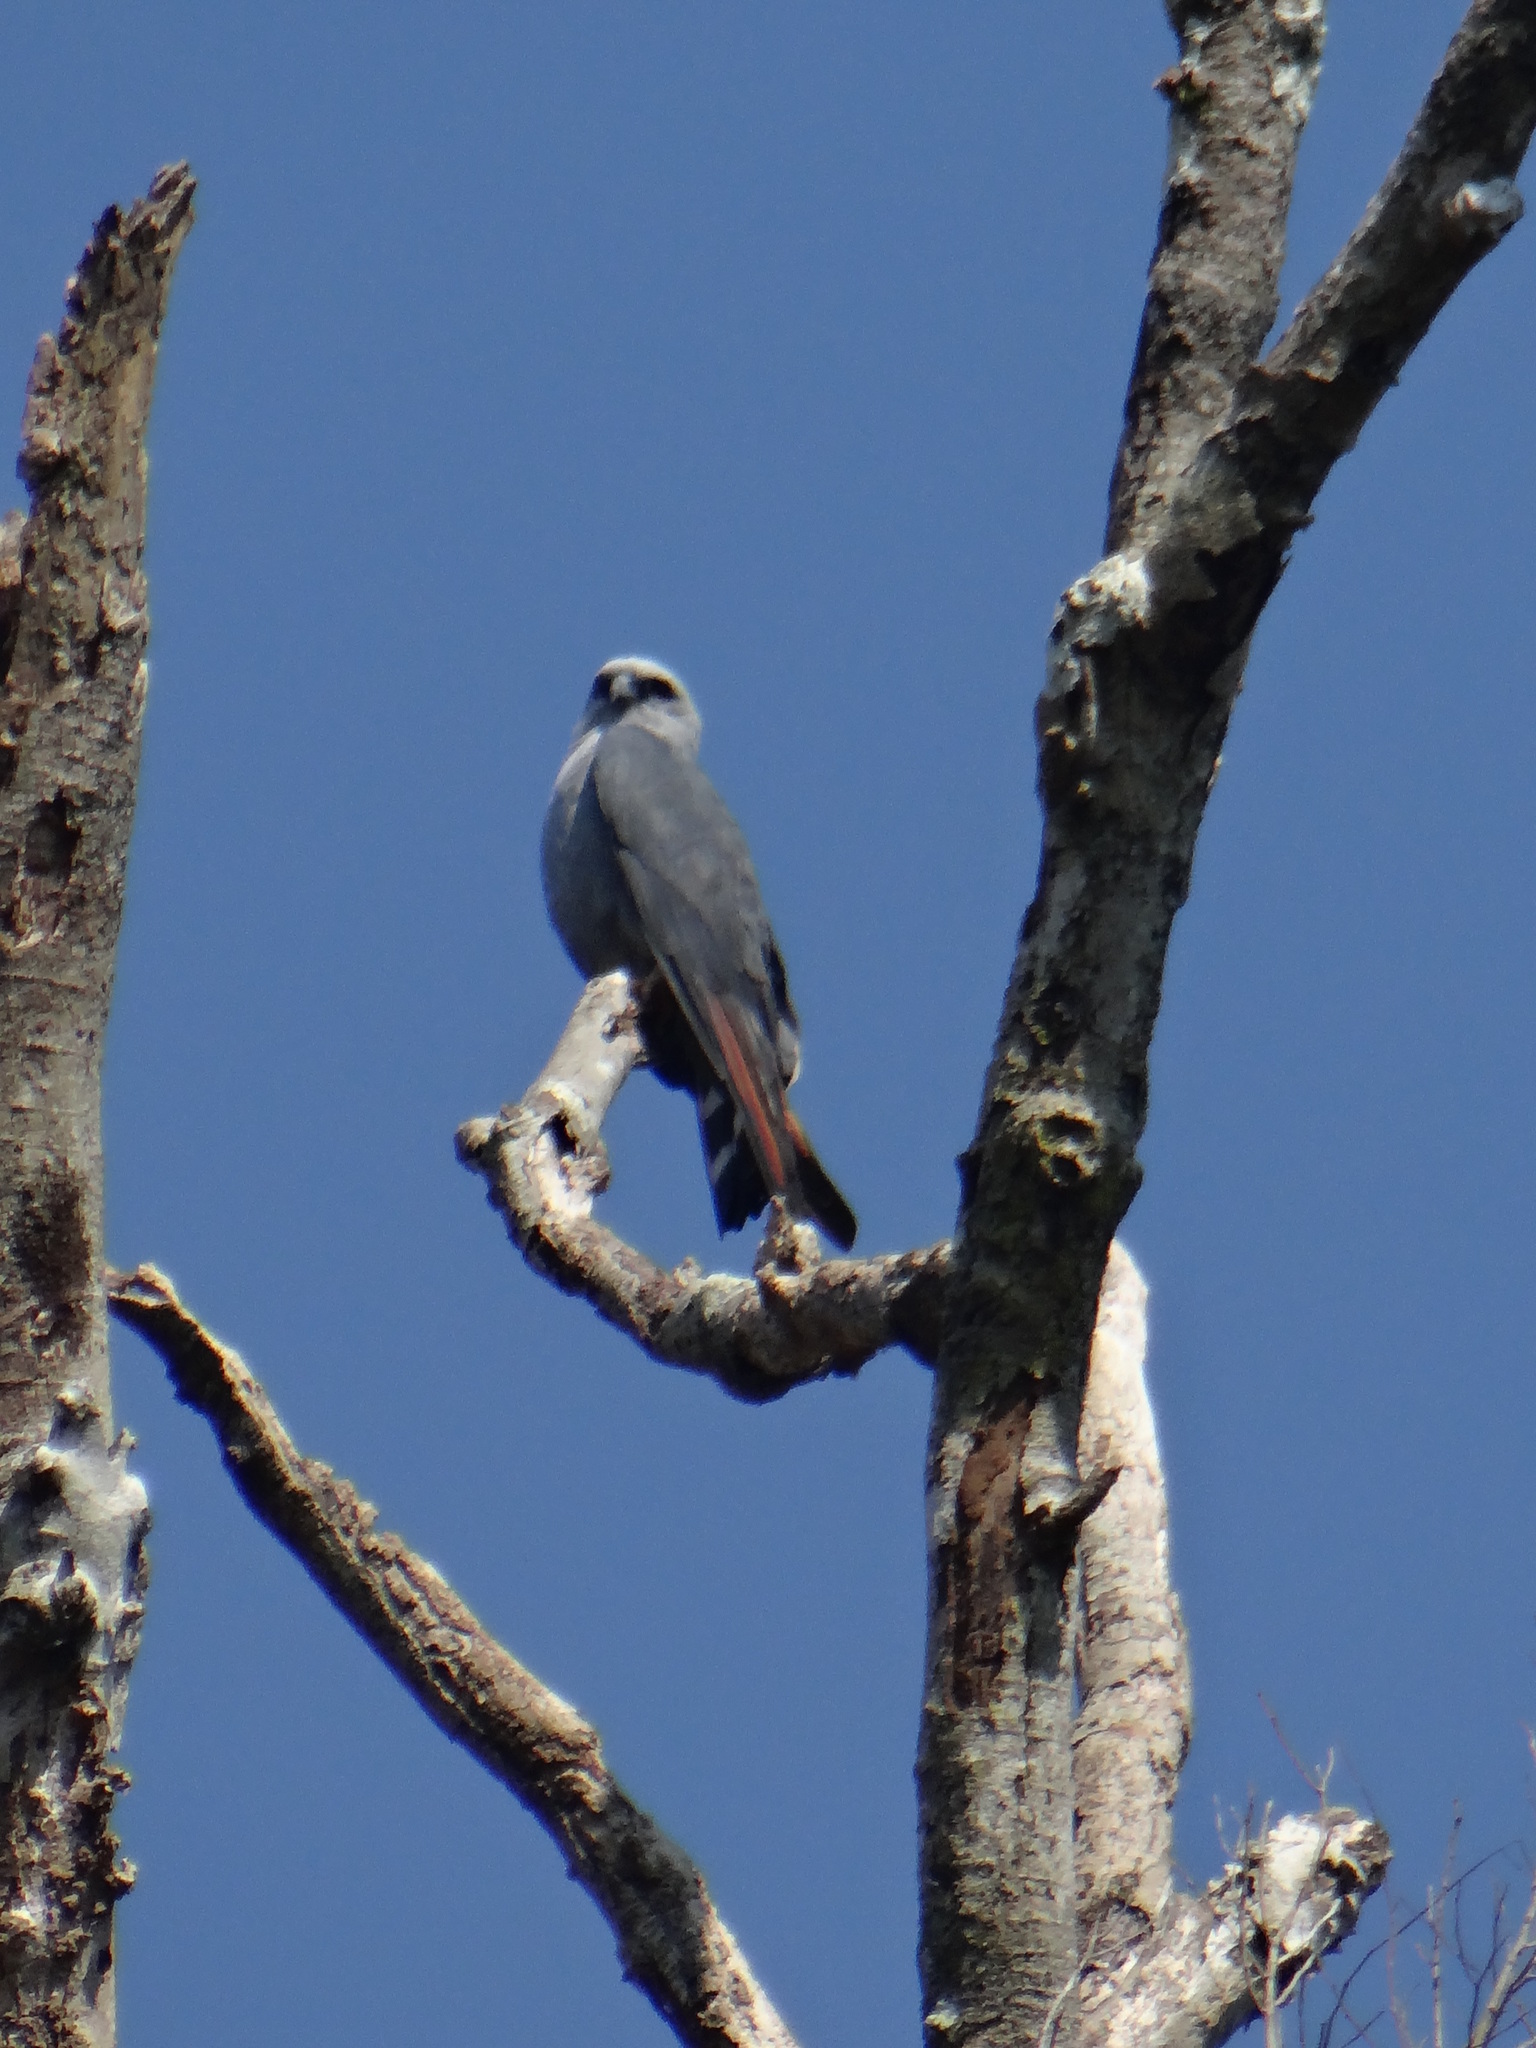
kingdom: Animalia
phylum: Chordata
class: Aves
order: Accipitriformes
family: Accipitridae
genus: Ictinia
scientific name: Ictinia plumbea
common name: Plumbeous kite
